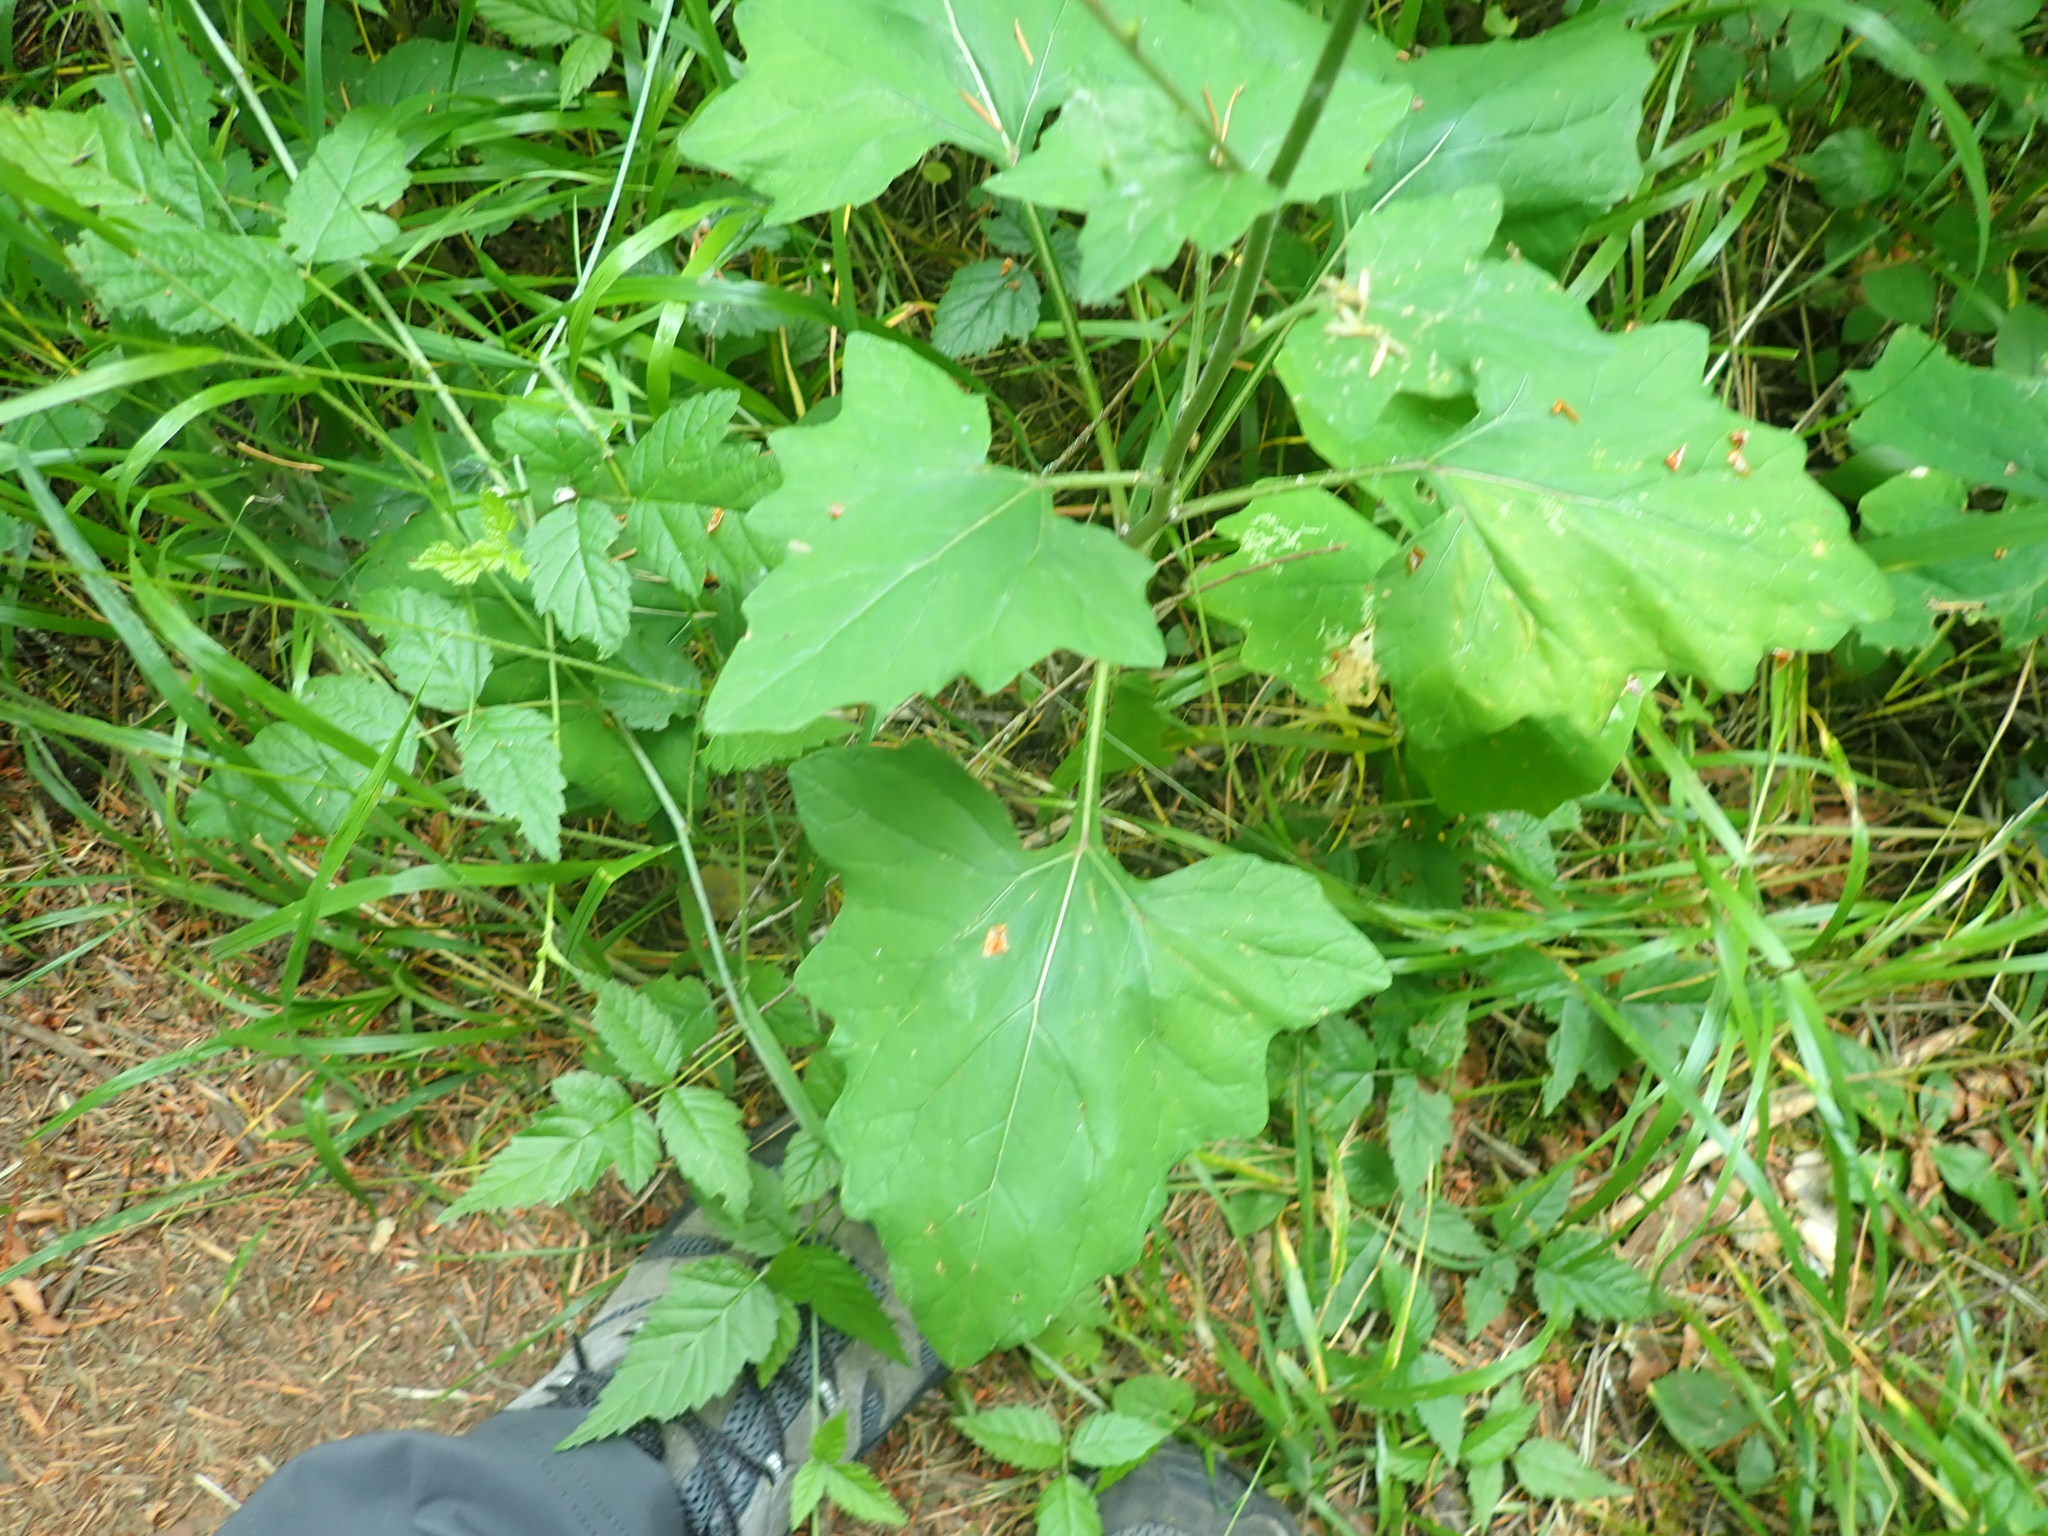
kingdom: Plantae
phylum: Tracheophyta
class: Magnoliopsida
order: Asterales
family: Asteraceae
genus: Adenocaulon
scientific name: Adenocaulon bicolor
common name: Trailplant
